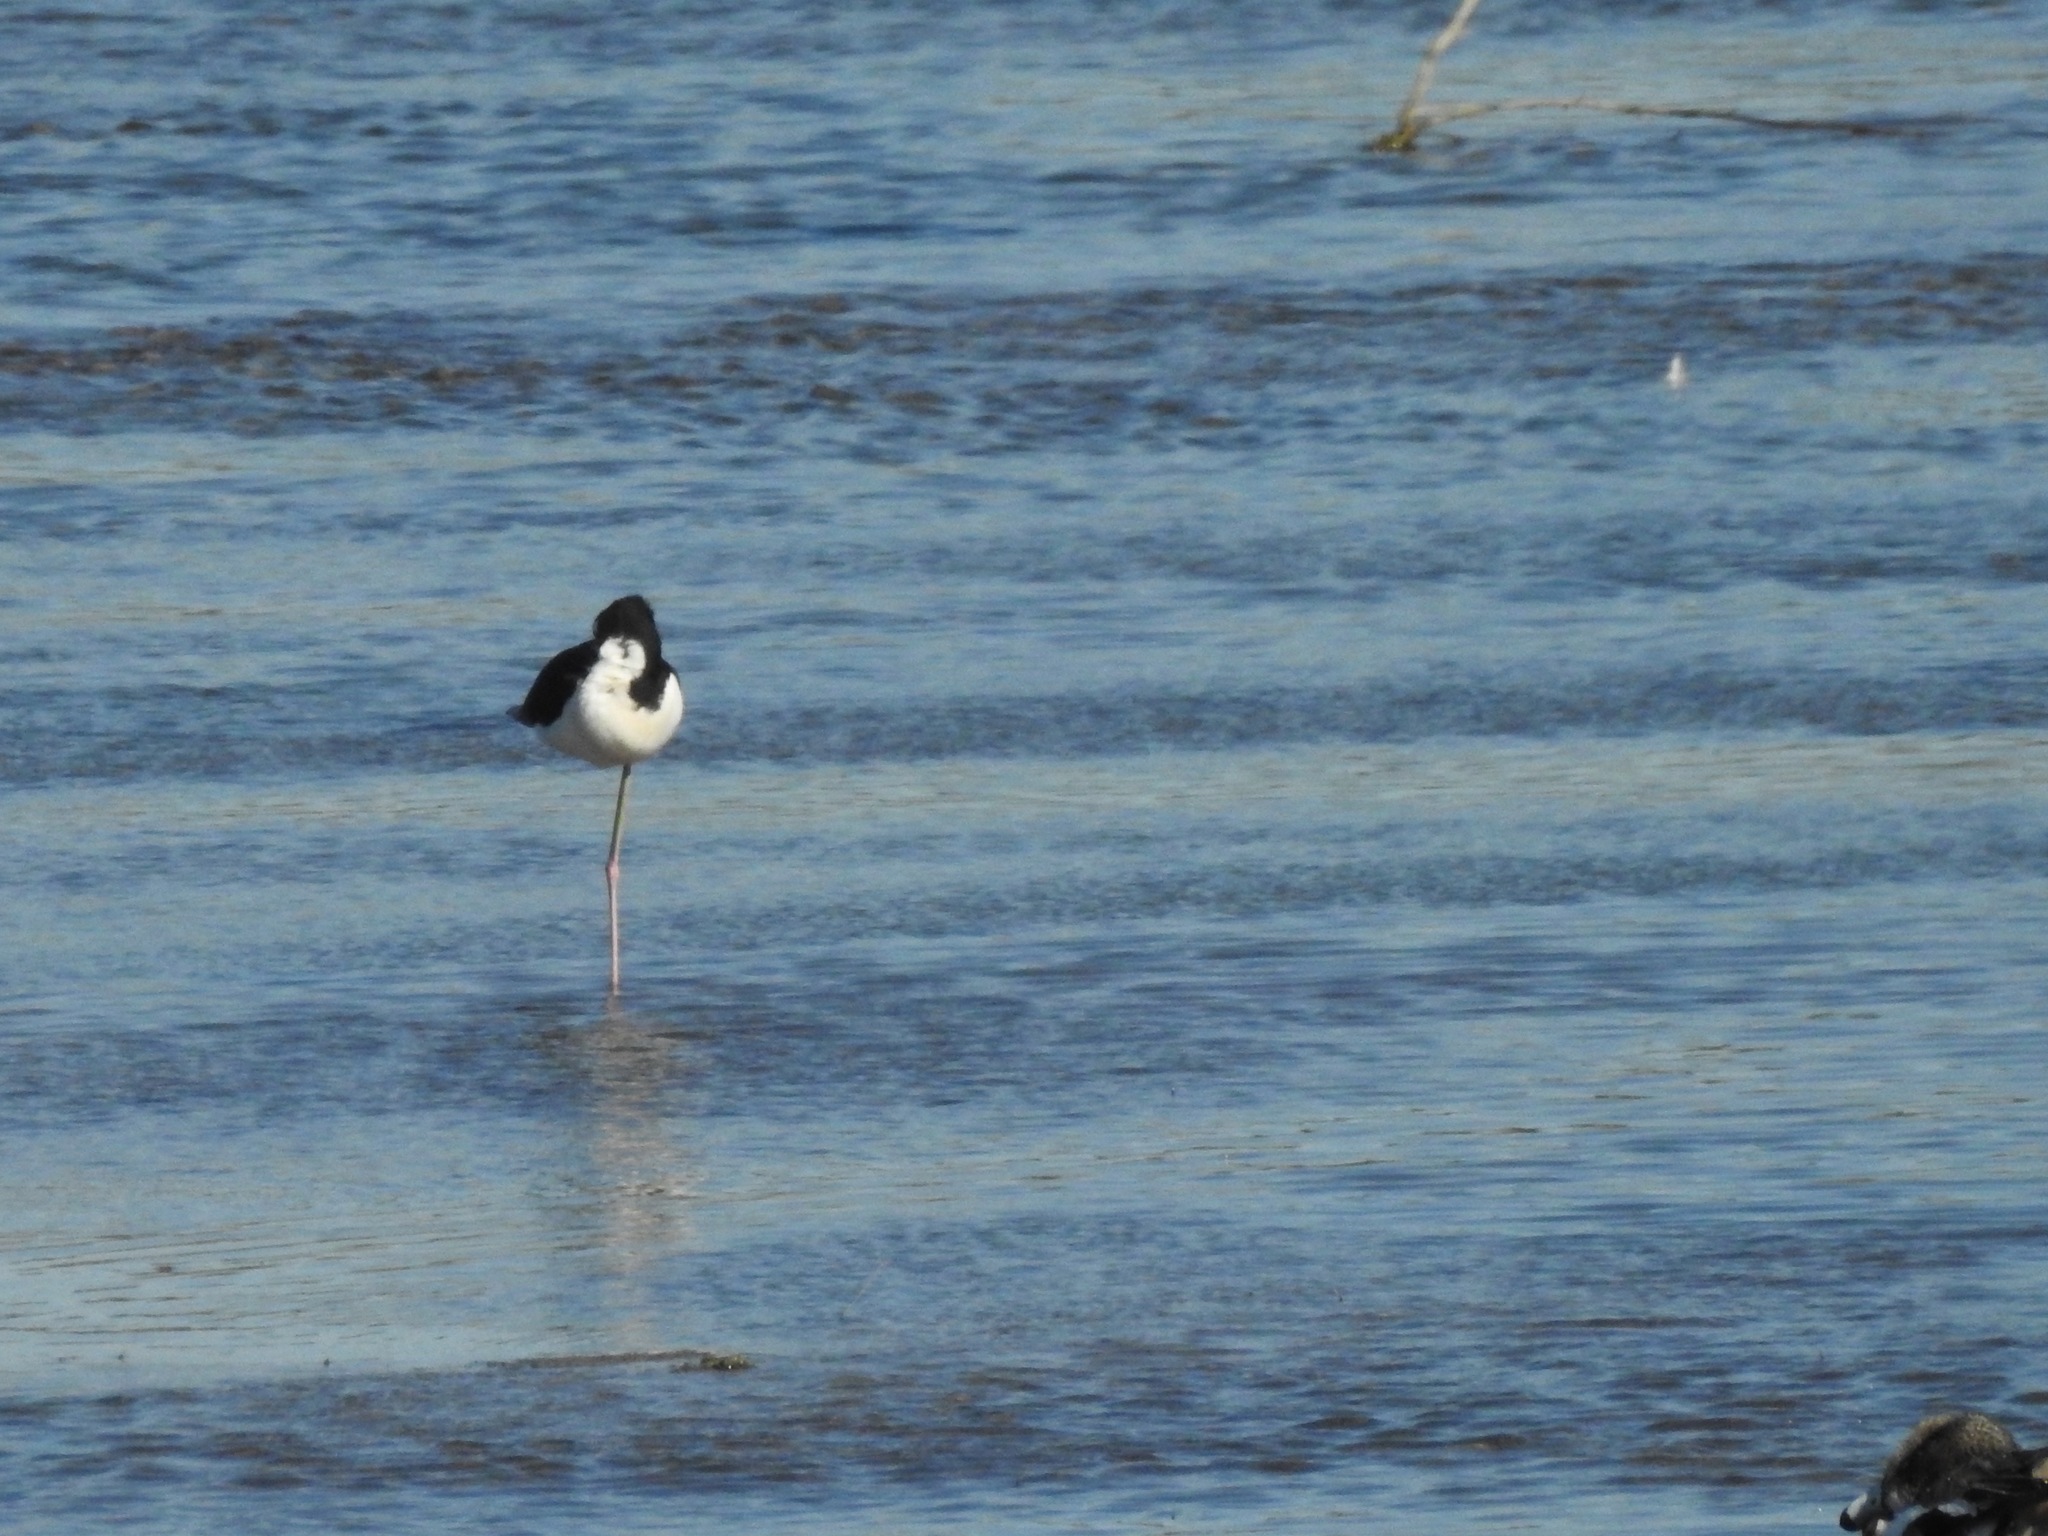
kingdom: Animalia
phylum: Chordata
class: Aves
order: Charadriiformes
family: Recurvirostridae
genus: Himantopus
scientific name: Himantopus mexicanus
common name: Black-necked stilt
